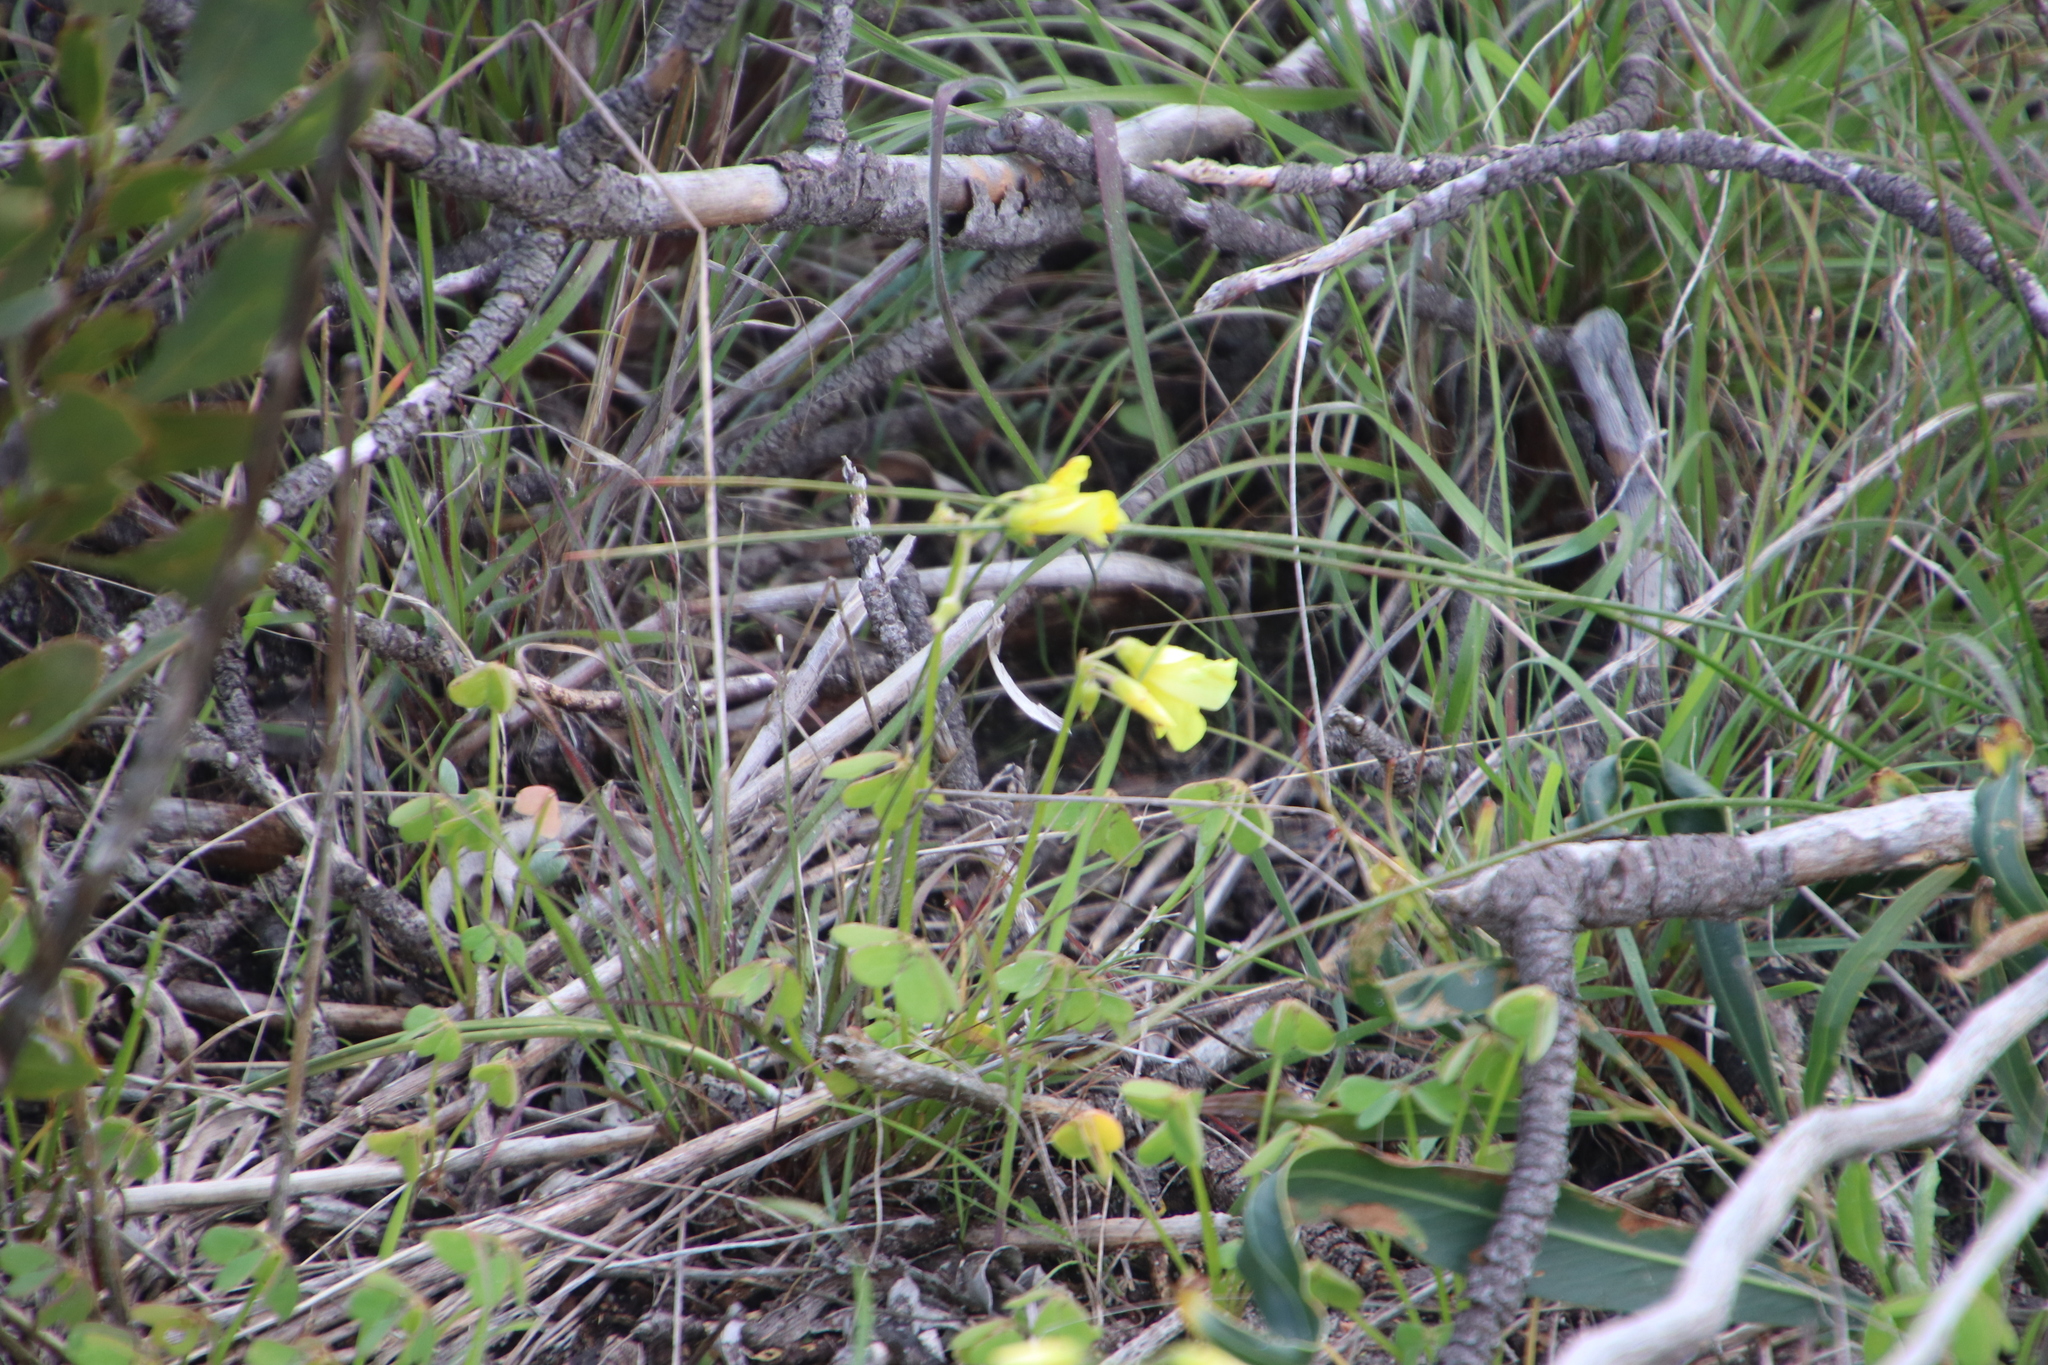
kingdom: Plantae
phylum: Tracheophyta
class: Magnoliopsida
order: Oxalidales
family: Oxalidaceae
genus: Oxalis
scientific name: Oxalis pes-caprae
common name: Bermuda-buttercup
